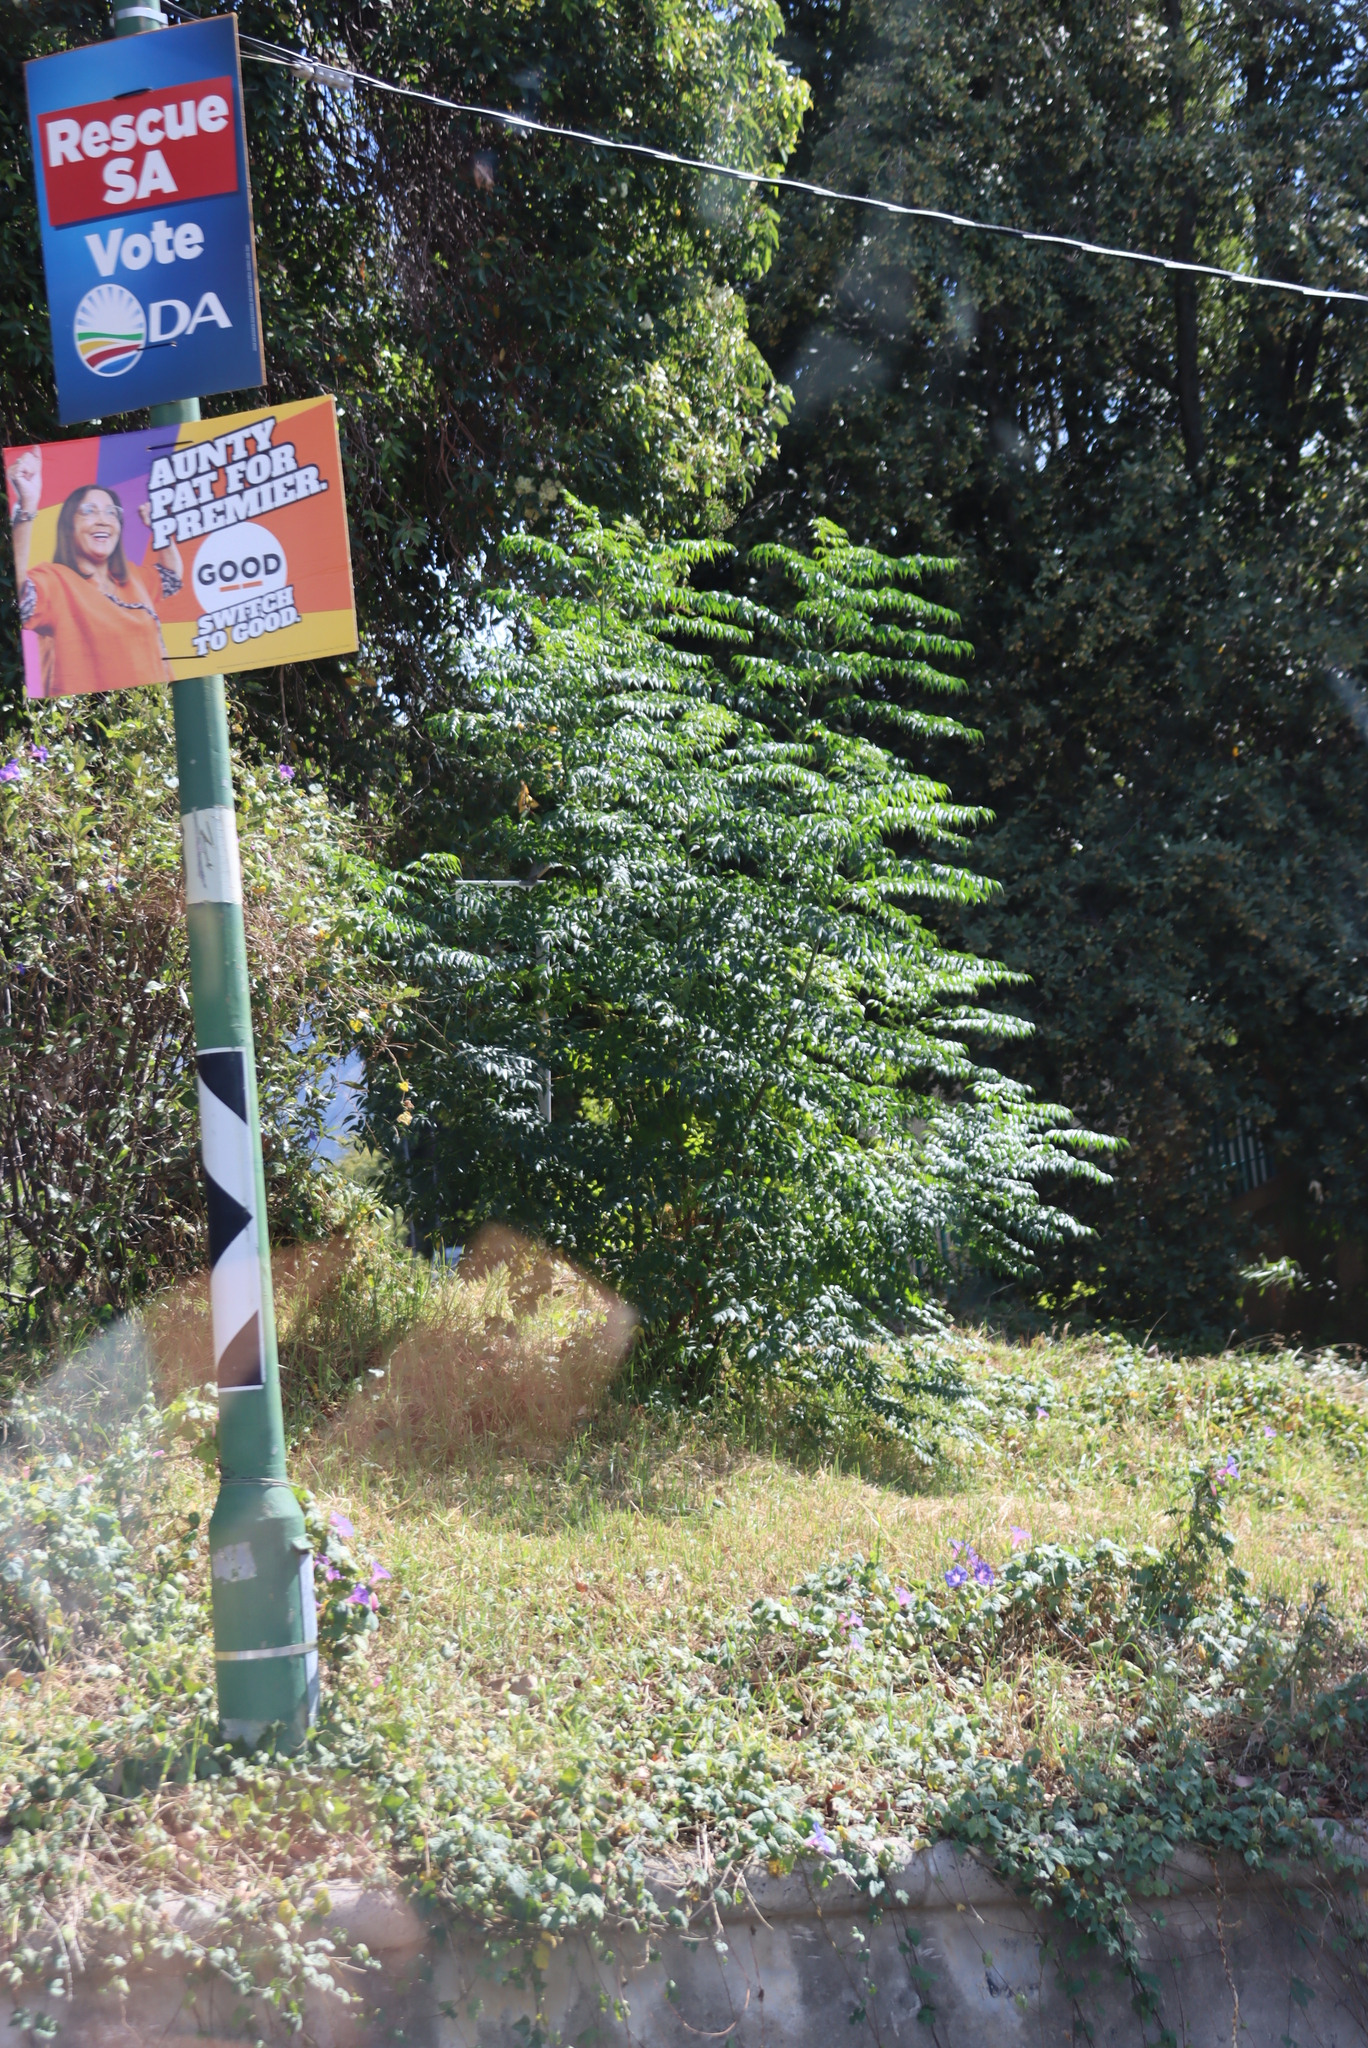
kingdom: Plantae
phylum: Tracheophyta
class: Magnoliopsida
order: Sapindales
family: Simaroubaceae
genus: Ailanthus
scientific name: Ailanthus altissima
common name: Tree-of-heaven
